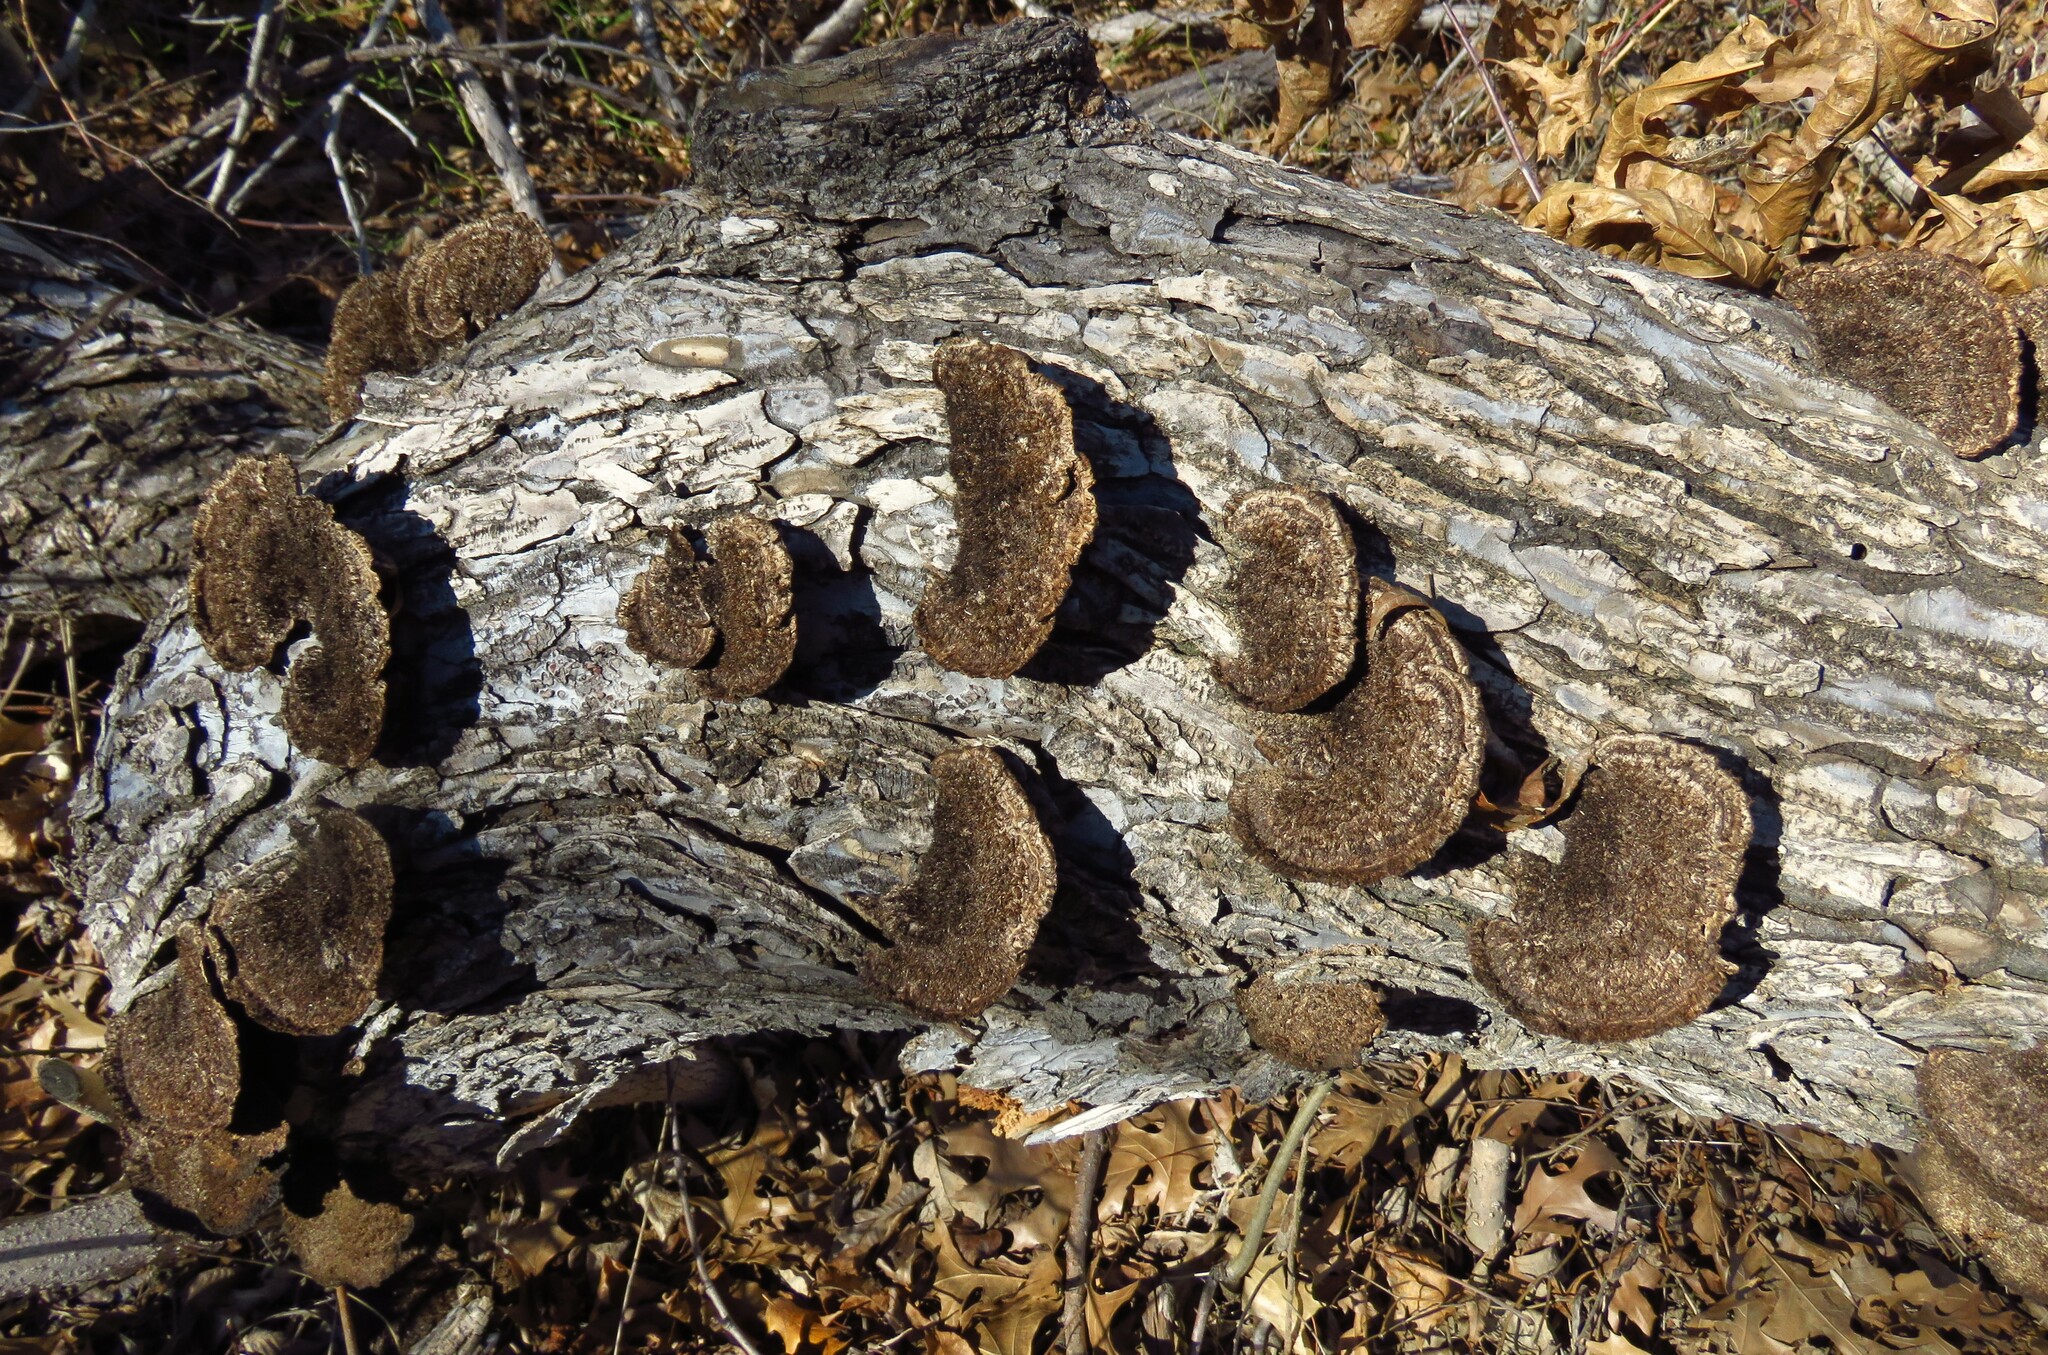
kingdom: Fungi
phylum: Basidiomycota
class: Agaricomycetes
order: Polyporales
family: Cerrenaceae
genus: Cerrena
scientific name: Cerrena hydnoides
